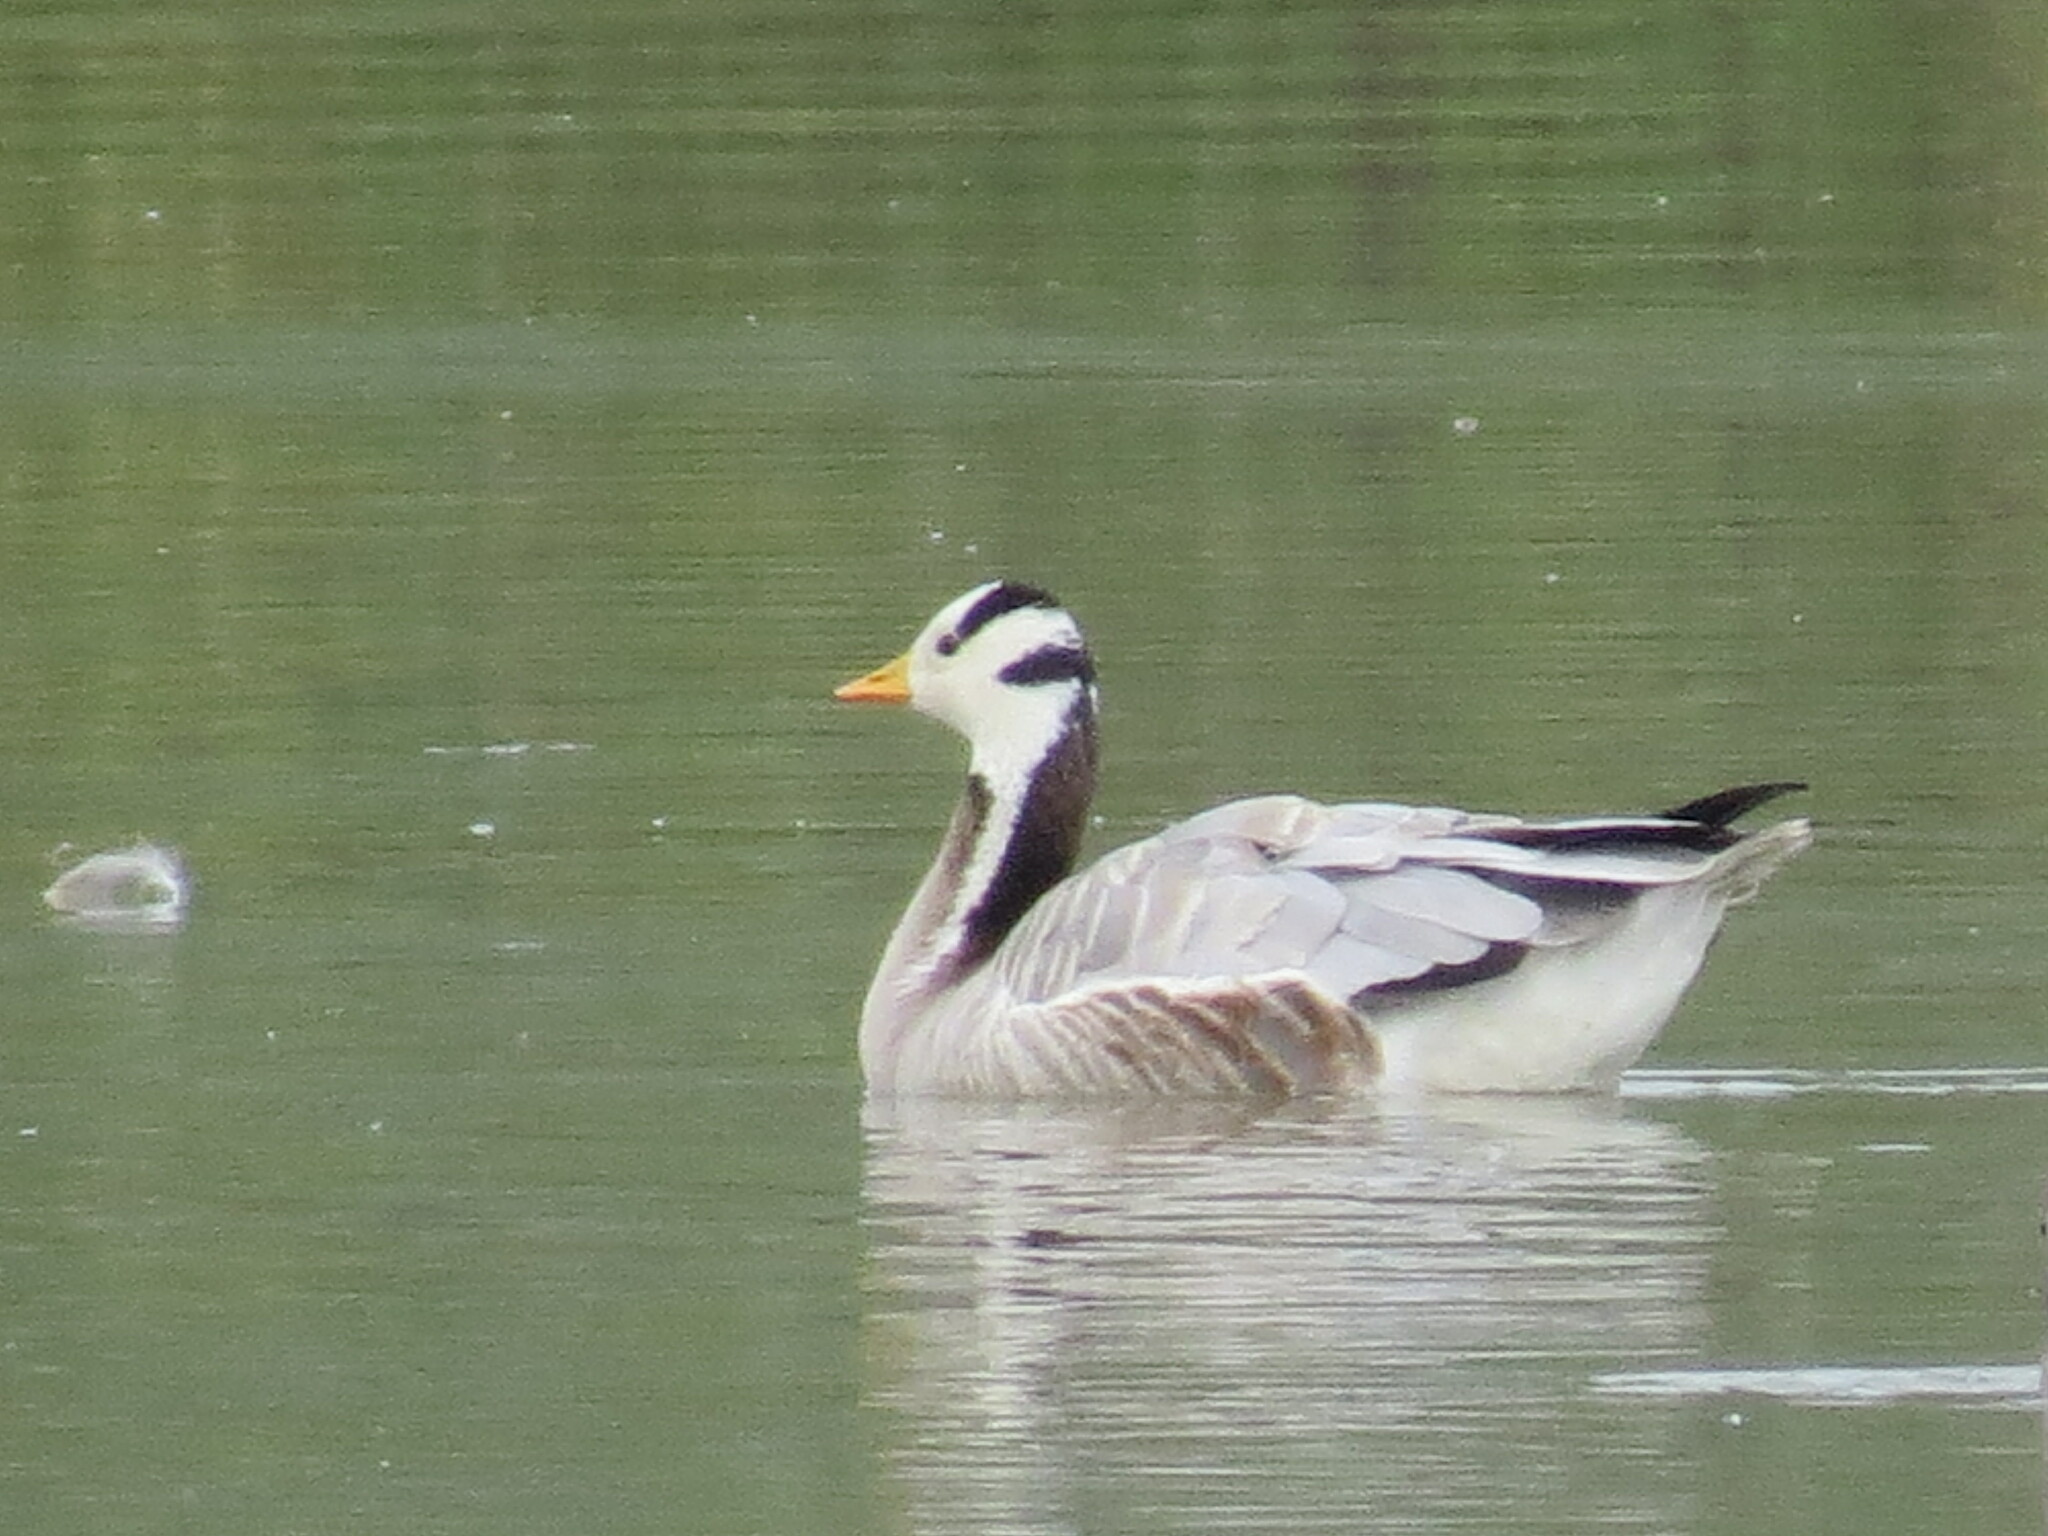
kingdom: Animalia
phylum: Chordata
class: Aves
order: Anseriformes
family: Anatidae
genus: Anser
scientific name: Anser indicus
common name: Bar-headed goose
